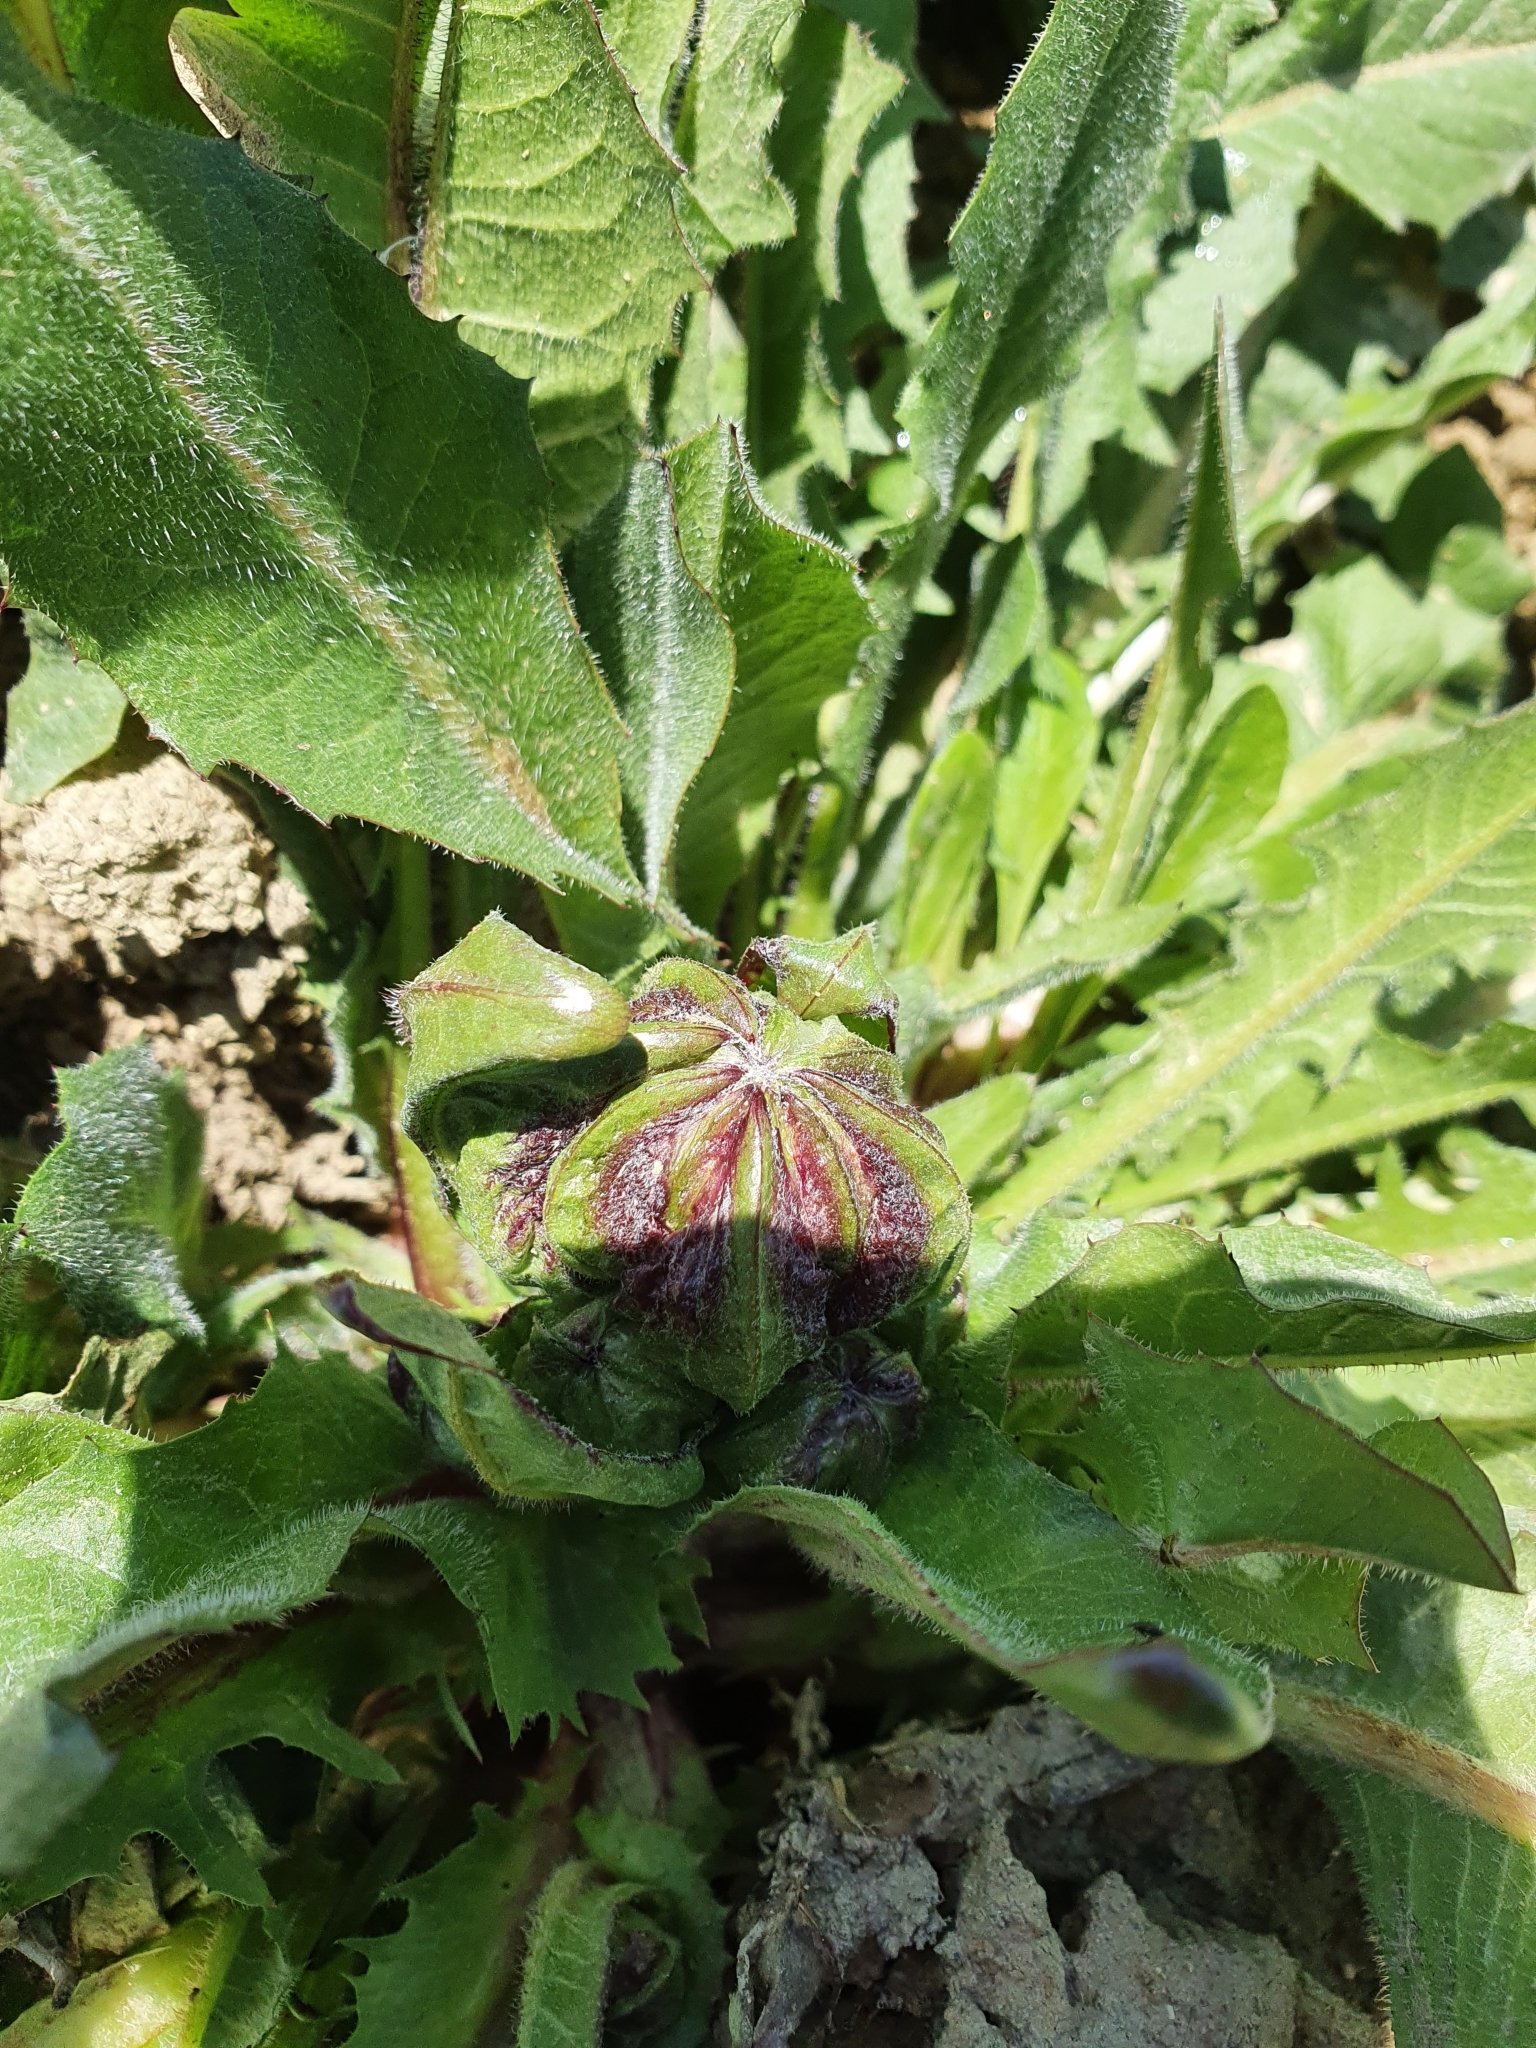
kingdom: Plantae
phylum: Tracheophyta
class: Magnoliopsida
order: Asterales
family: Asteraceae
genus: Crepis
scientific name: Crepis vesicaria
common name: Beaked hawksbeard
